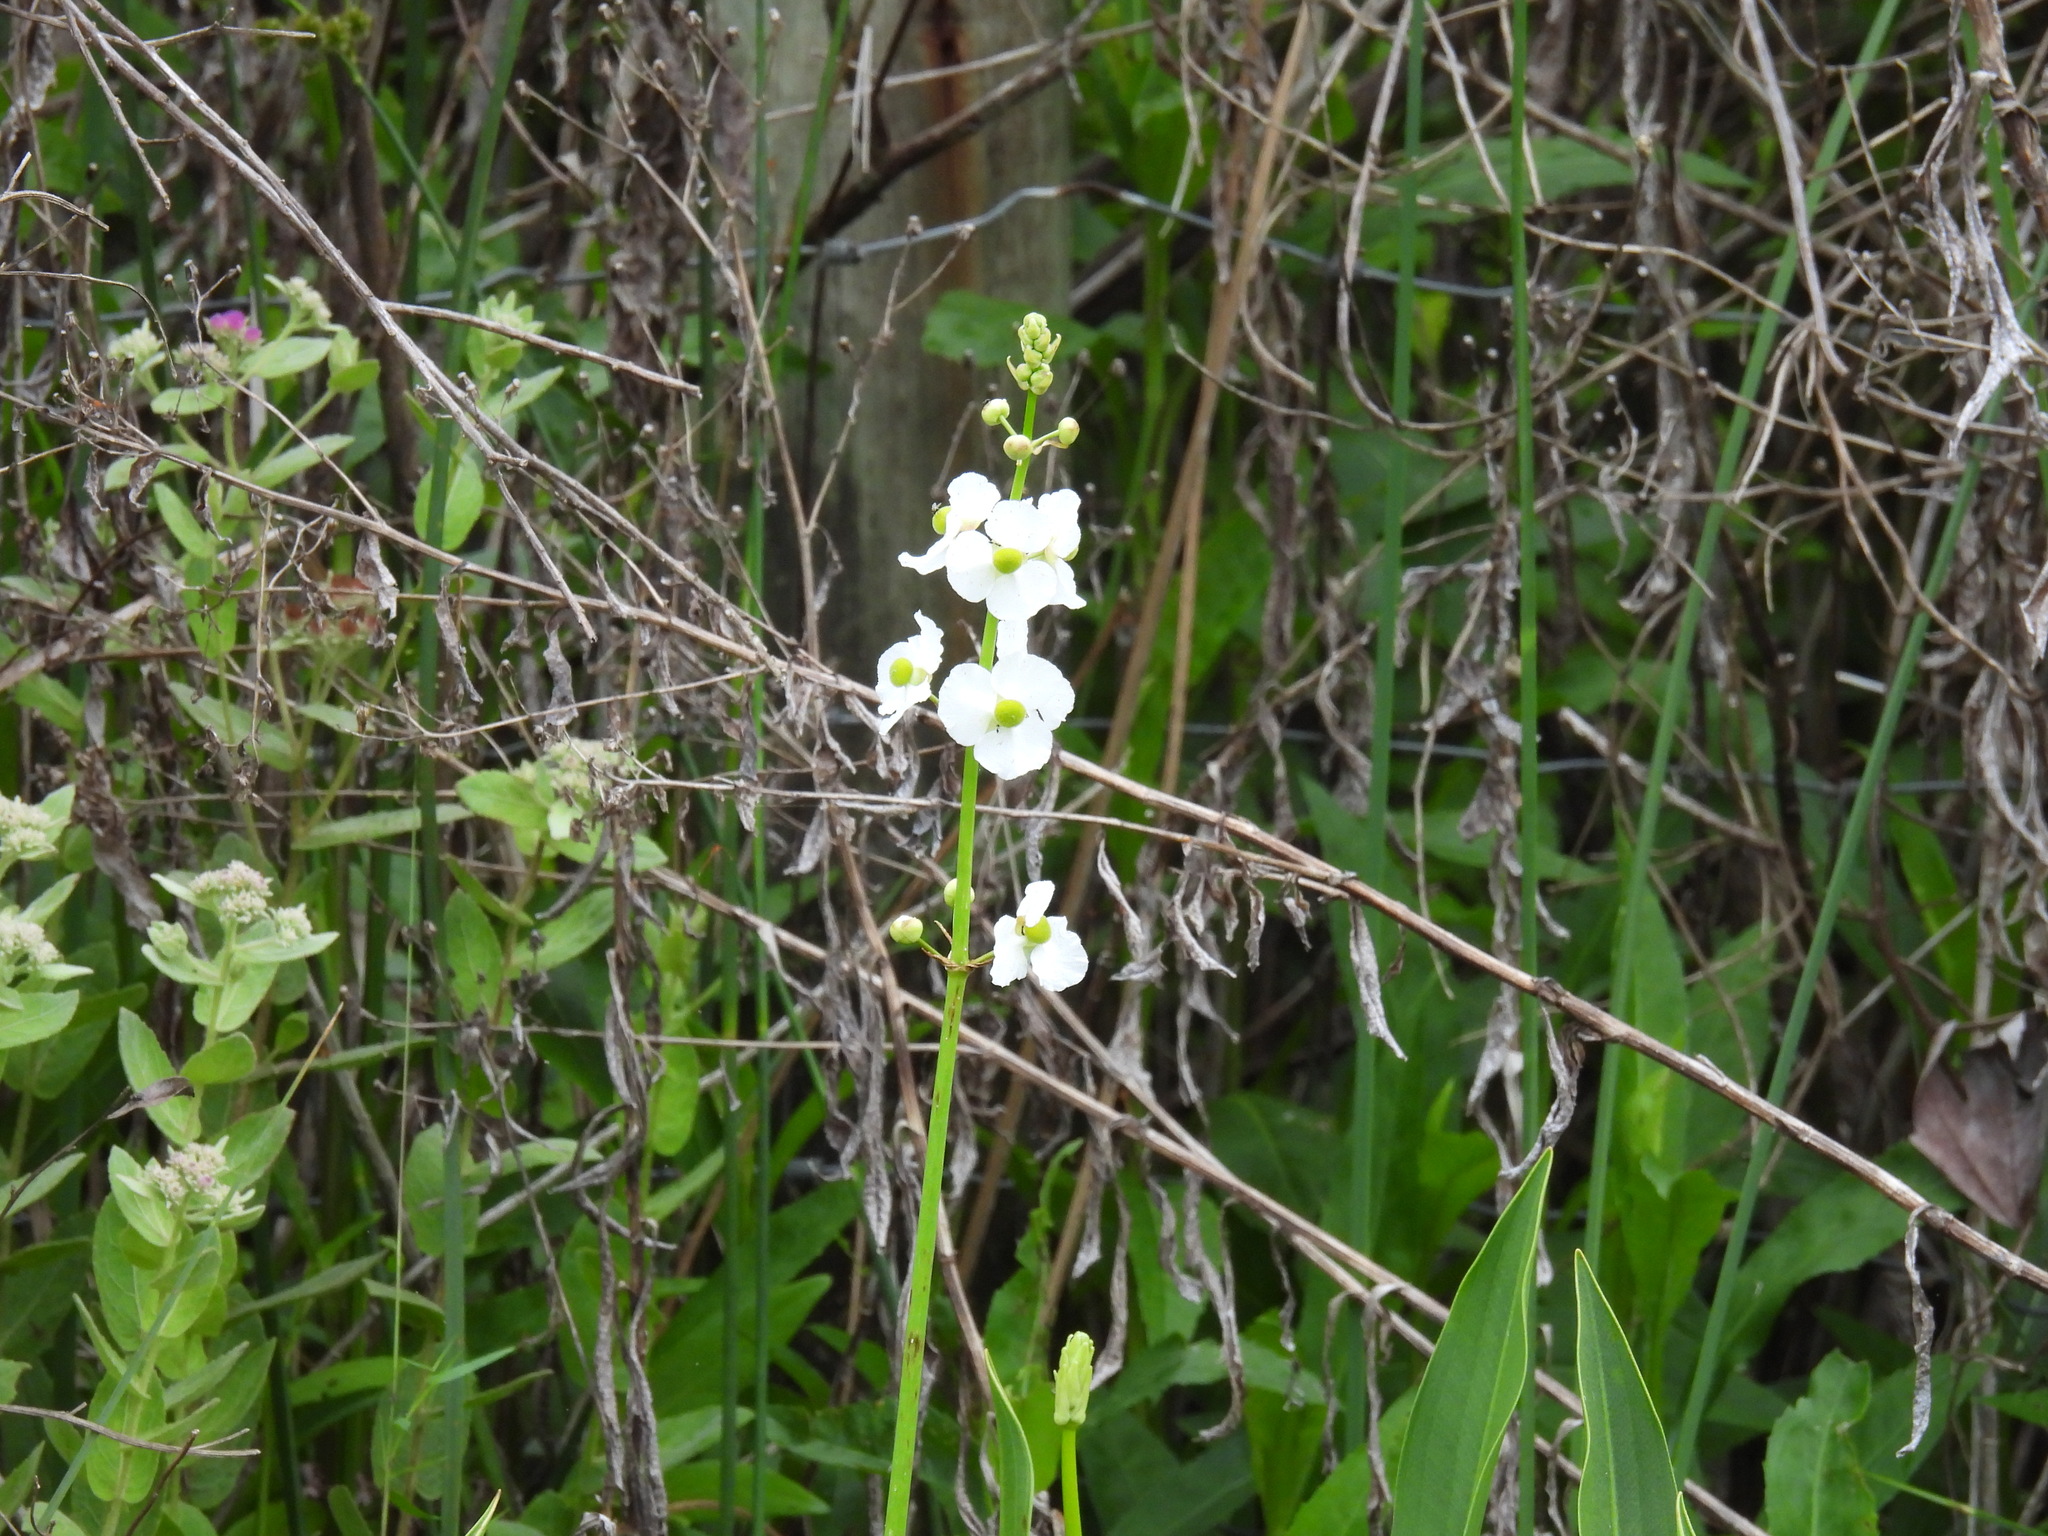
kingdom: Plantae
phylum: Tracheophyta
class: Liliopsida
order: Alismatales
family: Alismataceae
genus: Sagittaria
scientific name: Sagittaria lancifolia
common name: Lance-leaf arrowhead
